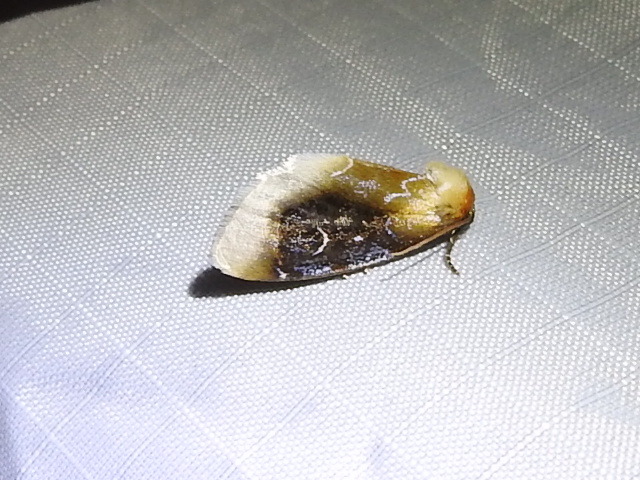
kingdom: Animalia
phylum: Arthropoda
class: Insecta
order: Lepidoptera
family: Noctuidae
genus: Chrysoecia
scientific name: Chrysoecia scira
